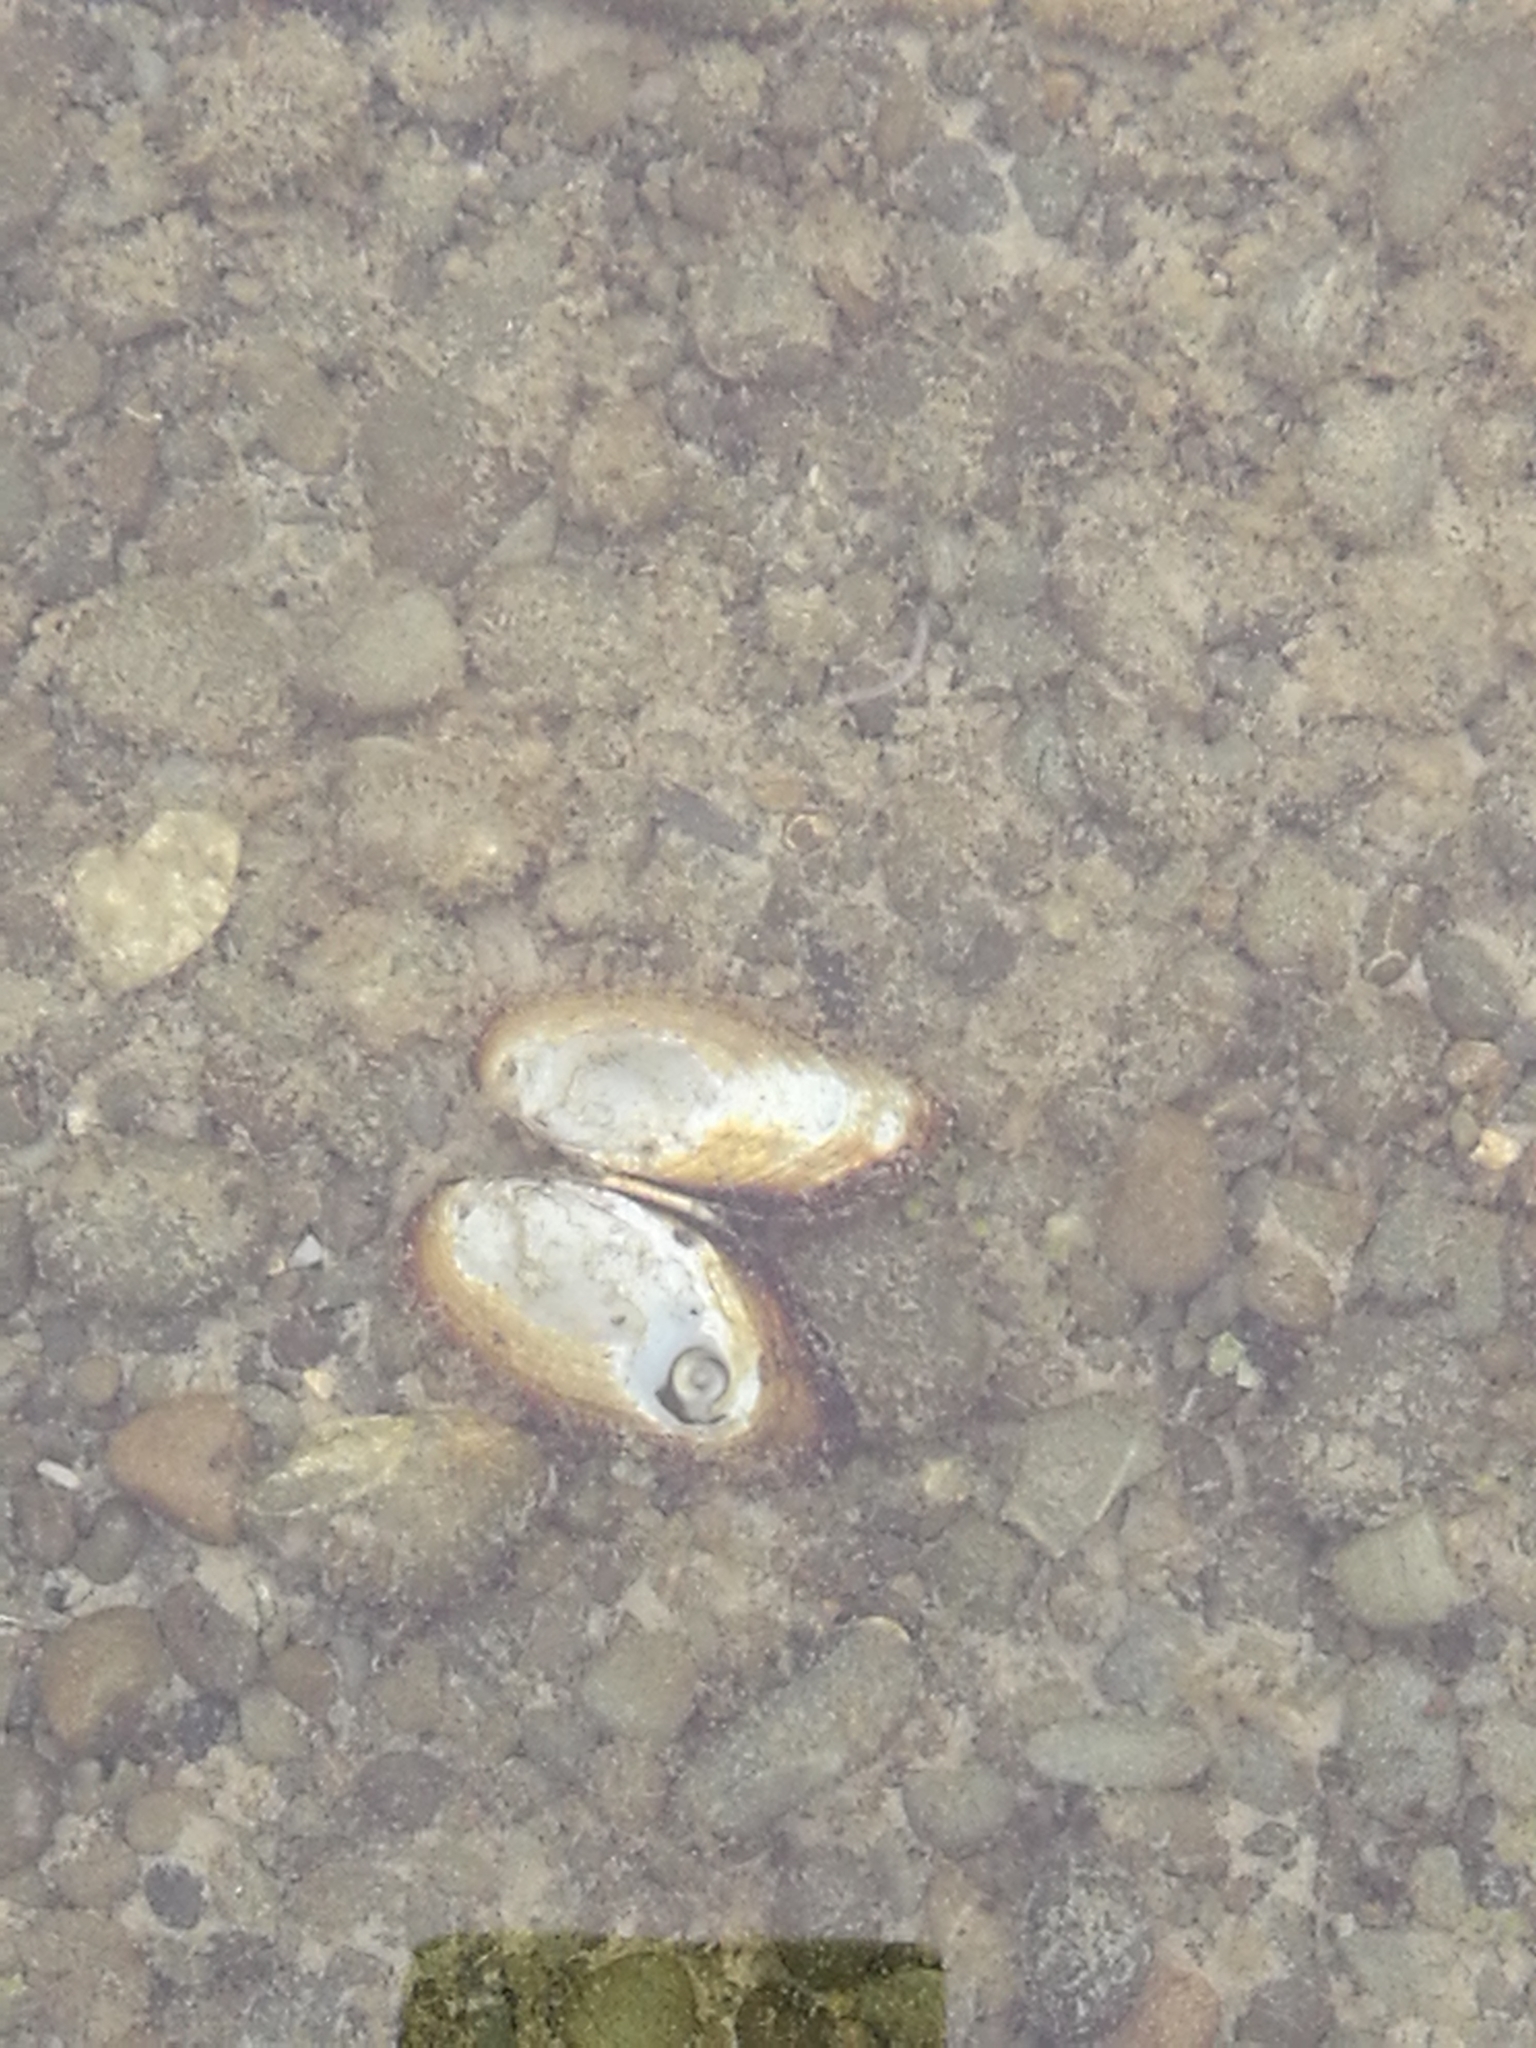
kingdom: Animalia
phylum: Mollusca
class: Bivalvia
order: Unionida
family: Hyriidae
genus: Echyridella
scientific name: Echyridella menziesii
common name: New zealand freshwater mussel
